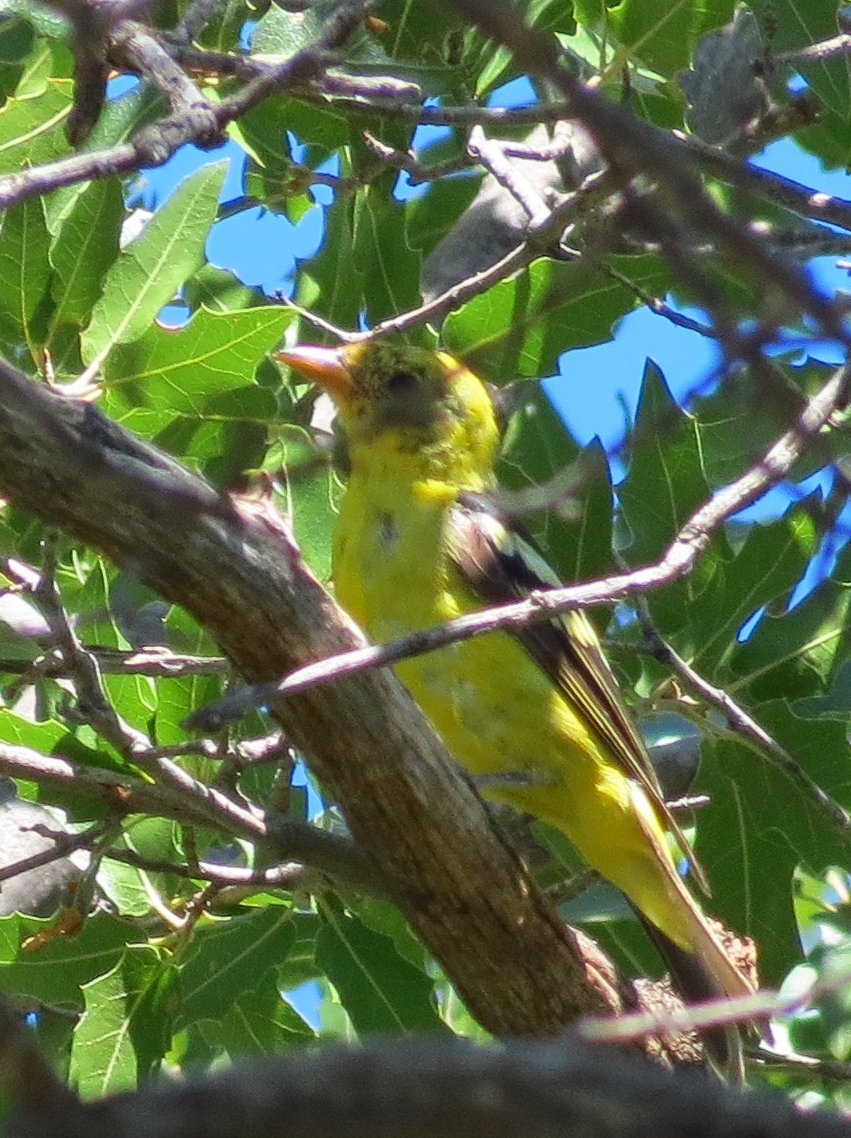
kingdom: Animalia
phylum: Chordata
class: Aves
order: Passeriformes
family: Cardinalidae
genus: Piranga
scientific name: Piranga ludoviciana
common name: Western tanager
